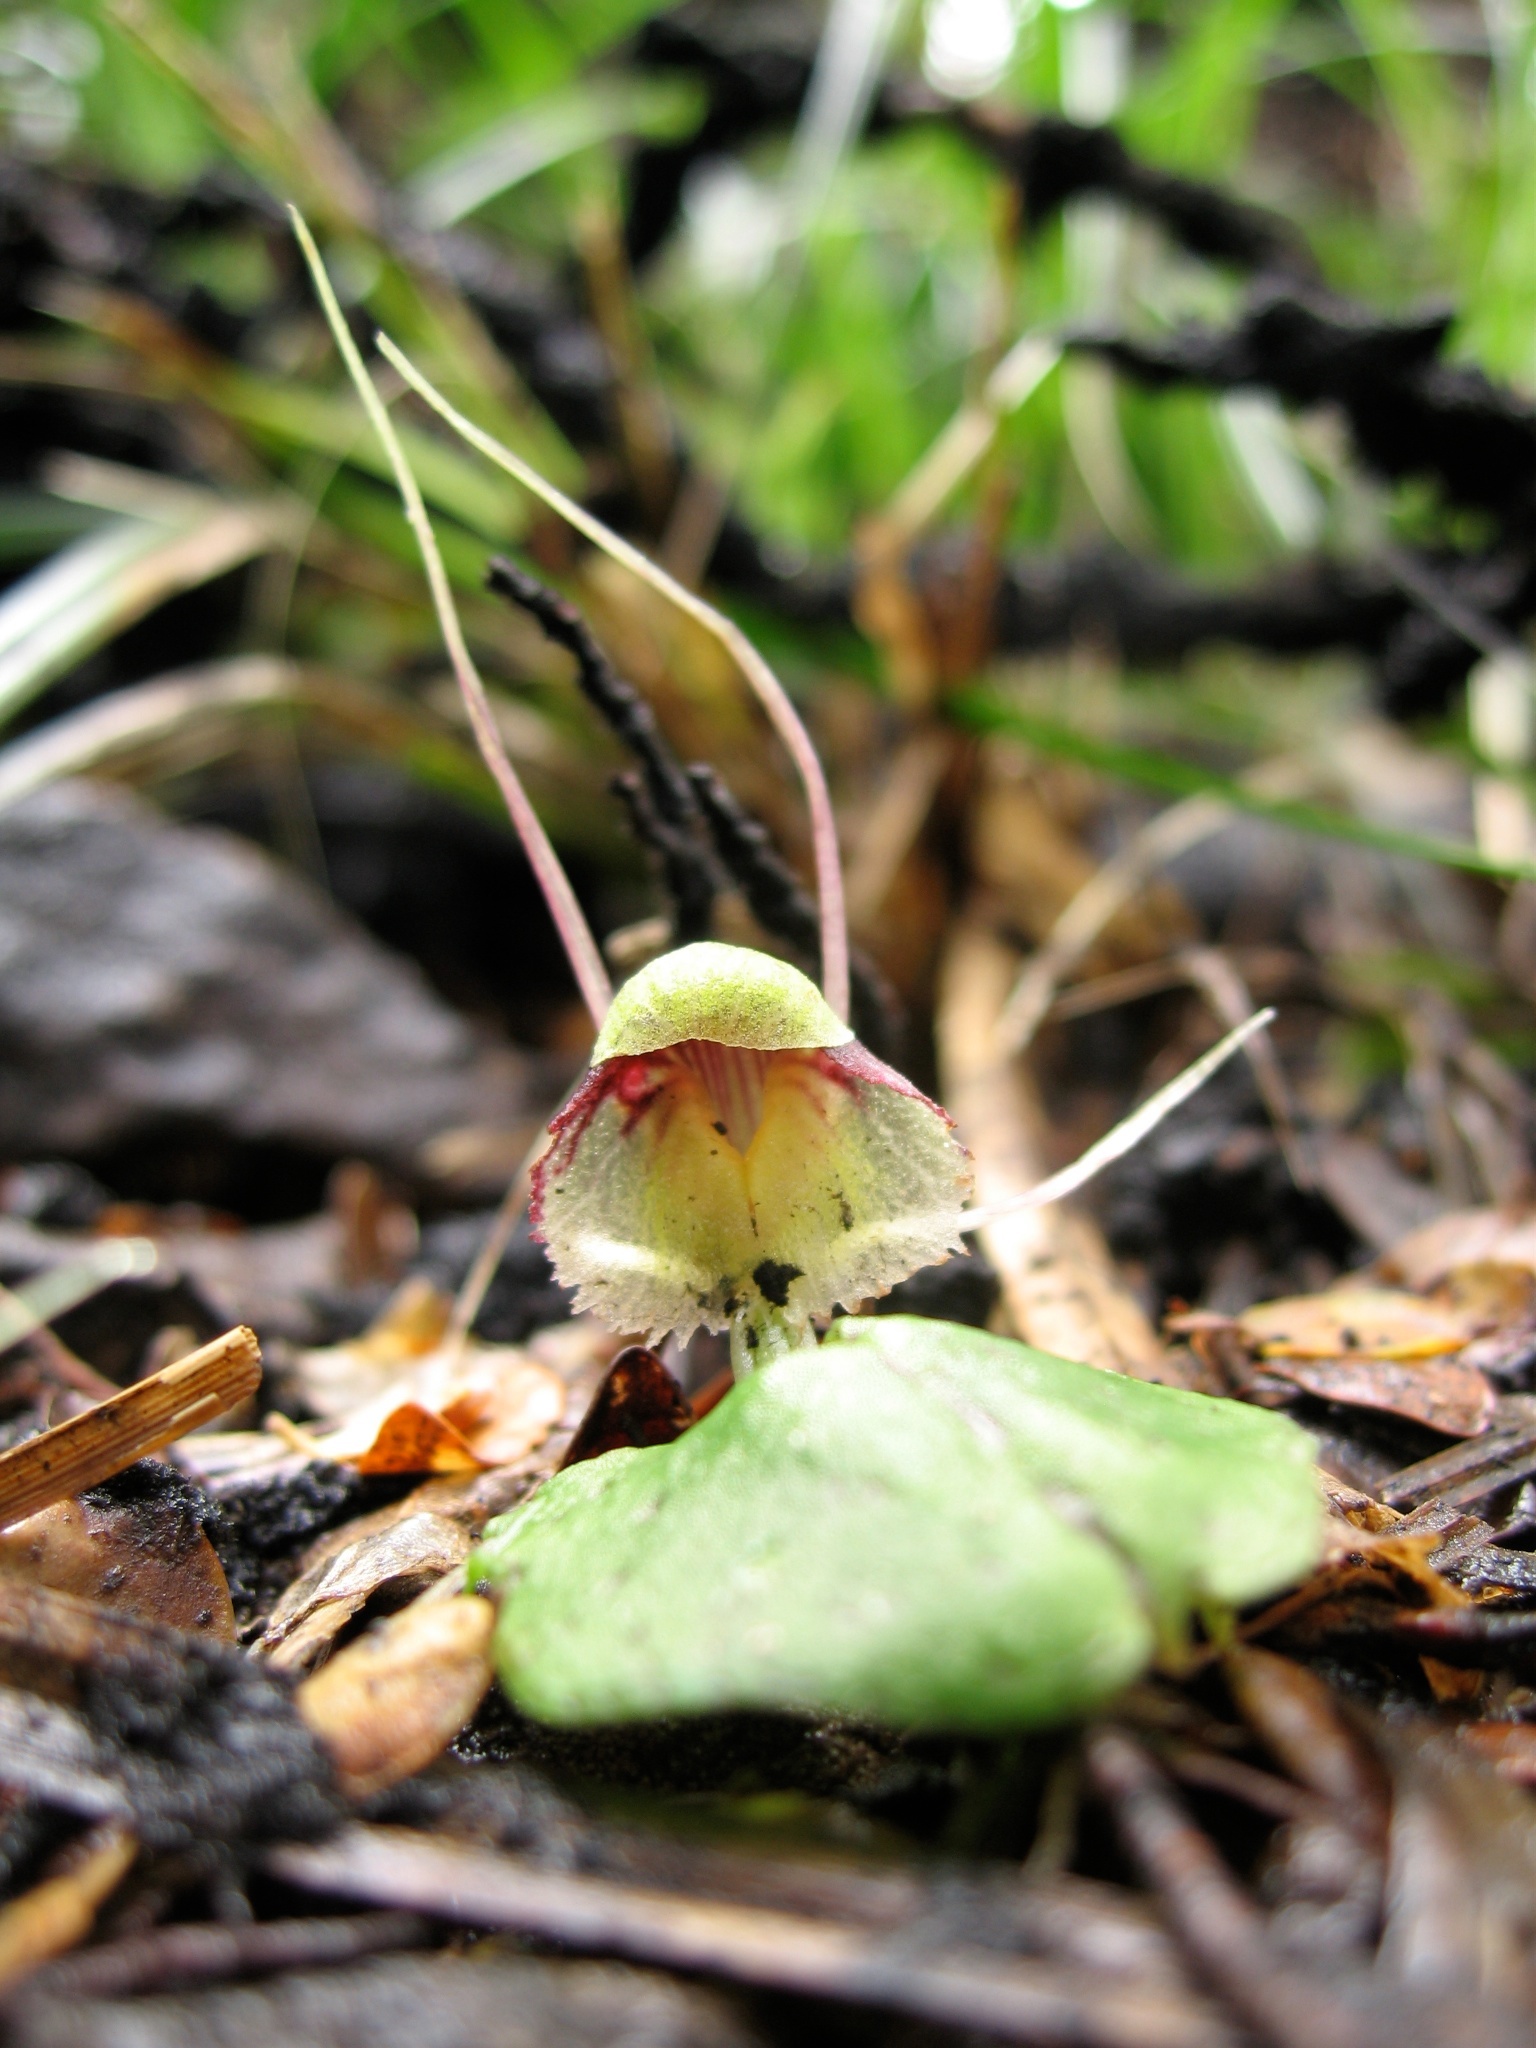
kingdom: Plantae
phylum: Tracheophyta
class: Liliopsida
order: Asparagales
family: Orchidaceae
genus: Corybas
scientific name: Corybas vitreus
